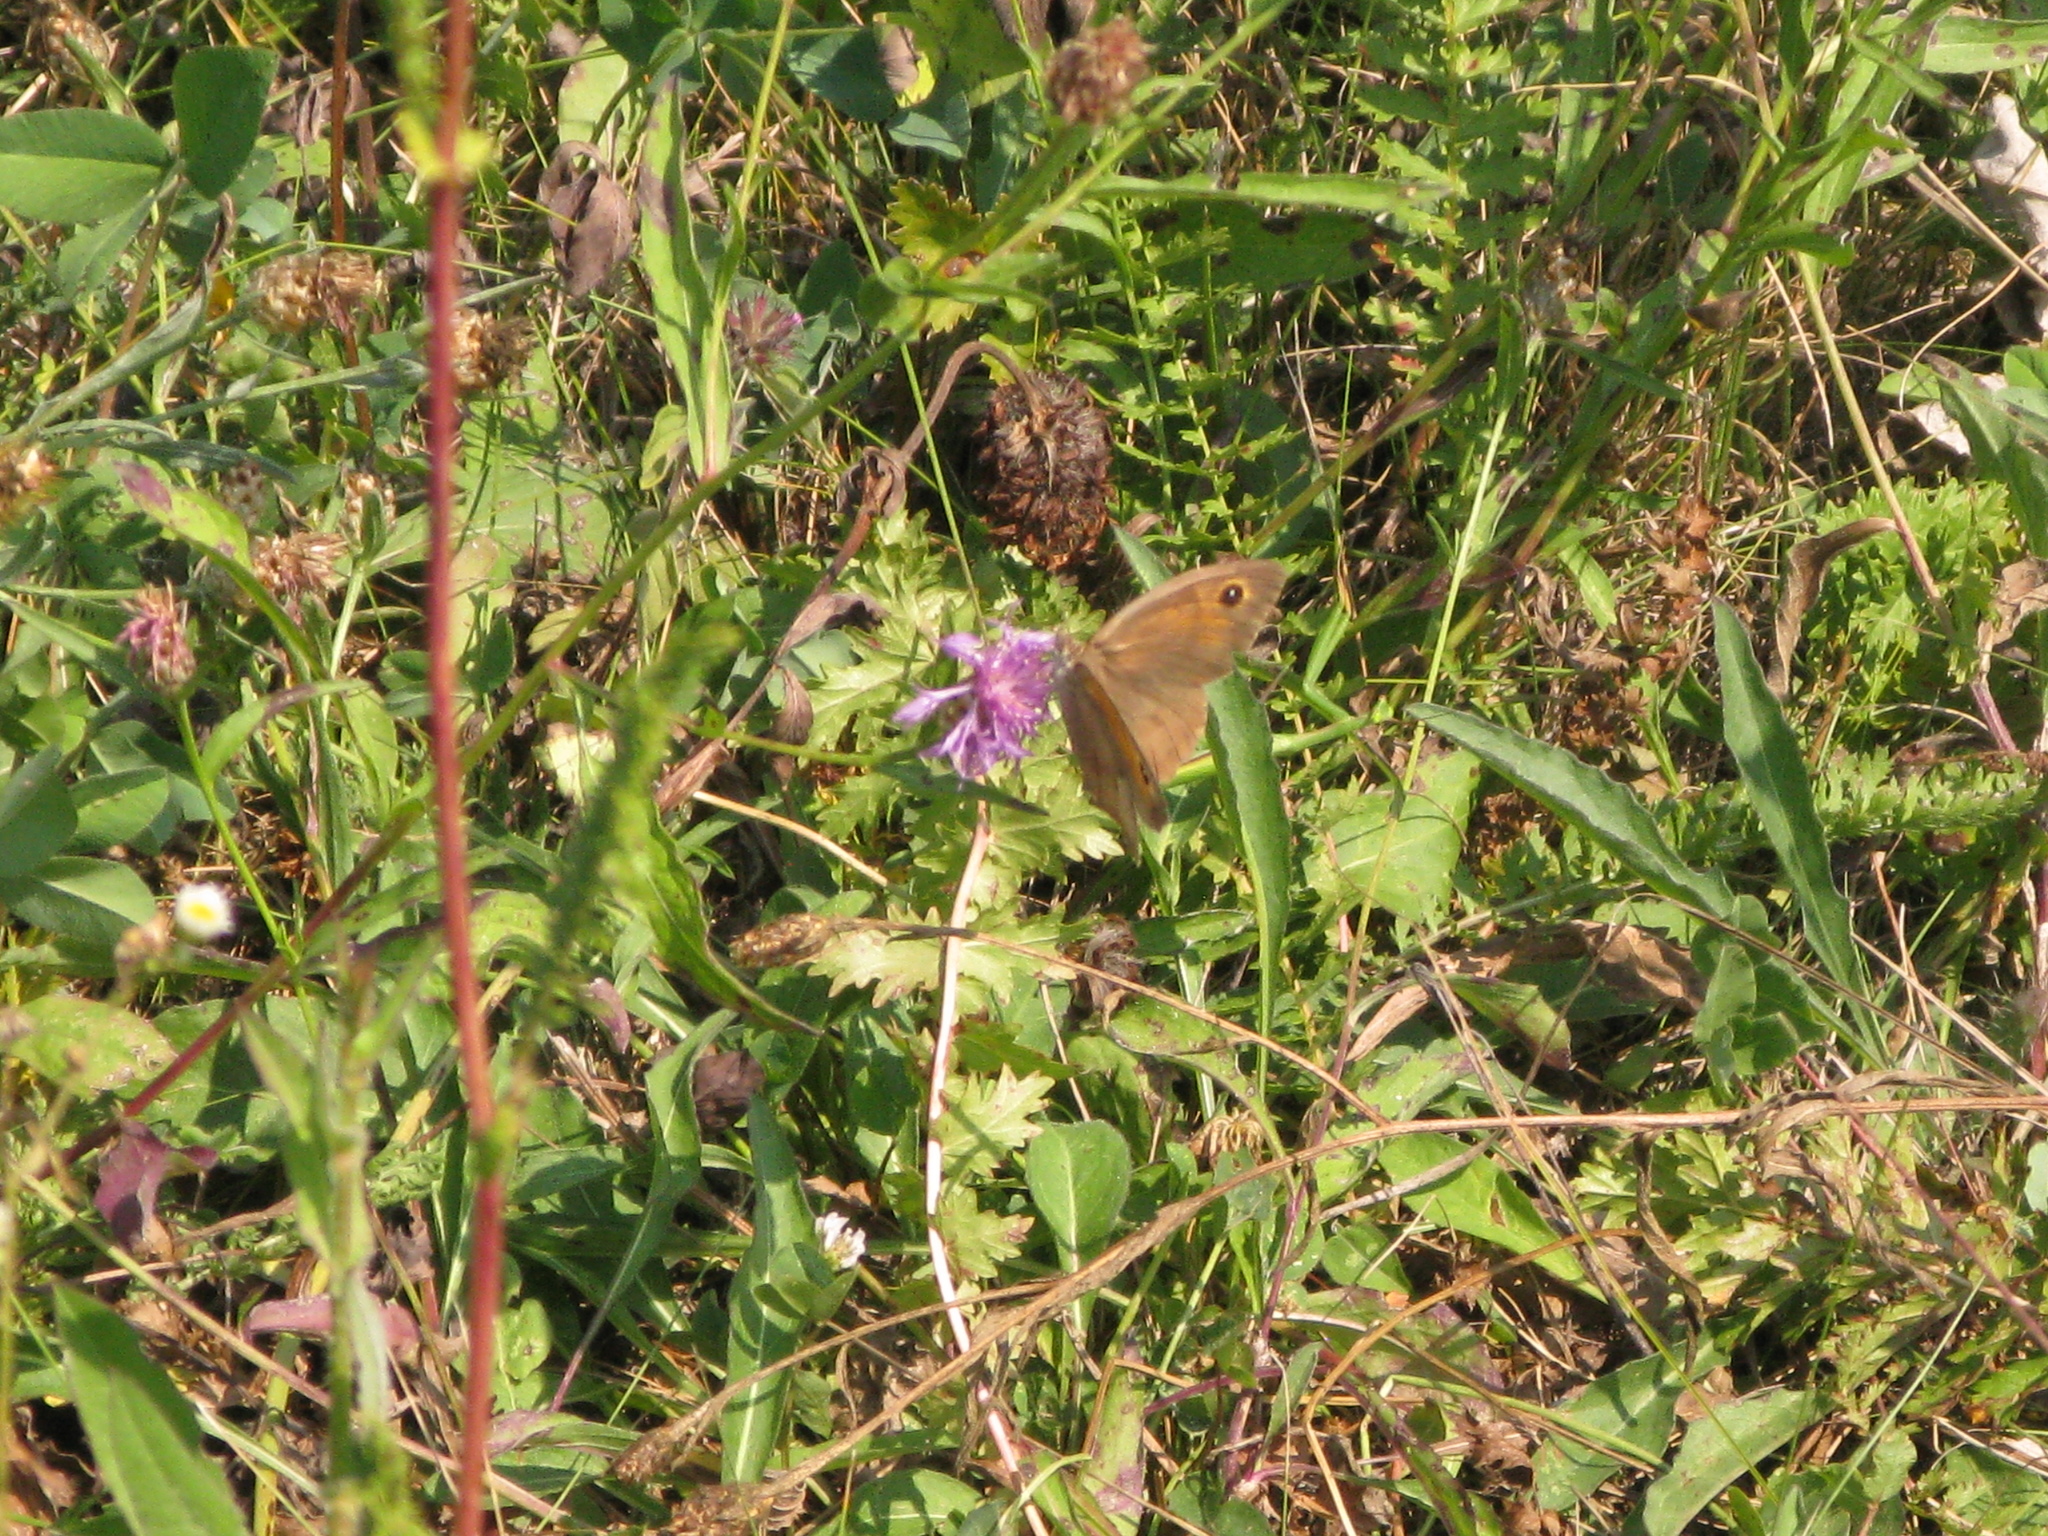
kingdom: Animalia
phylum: Arthropoda
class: Insecta
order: Lepidoptera
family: Nymphalidae
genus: Maniola
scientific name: Maniola jurtina
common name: Meadow brown
